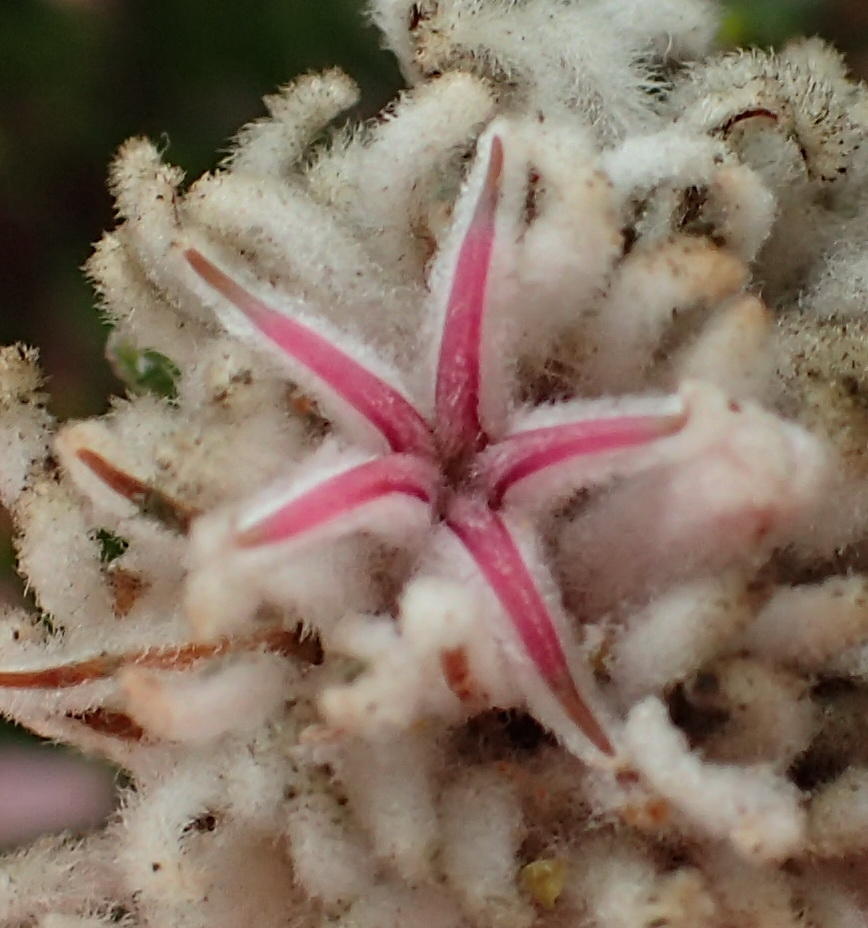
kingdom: Plantae
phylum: Tracheophyta
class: Magnoliopsida
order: Rosales
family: Rhamnaceae
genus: Trichocephalus
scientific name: Trichocephalus stipularis
